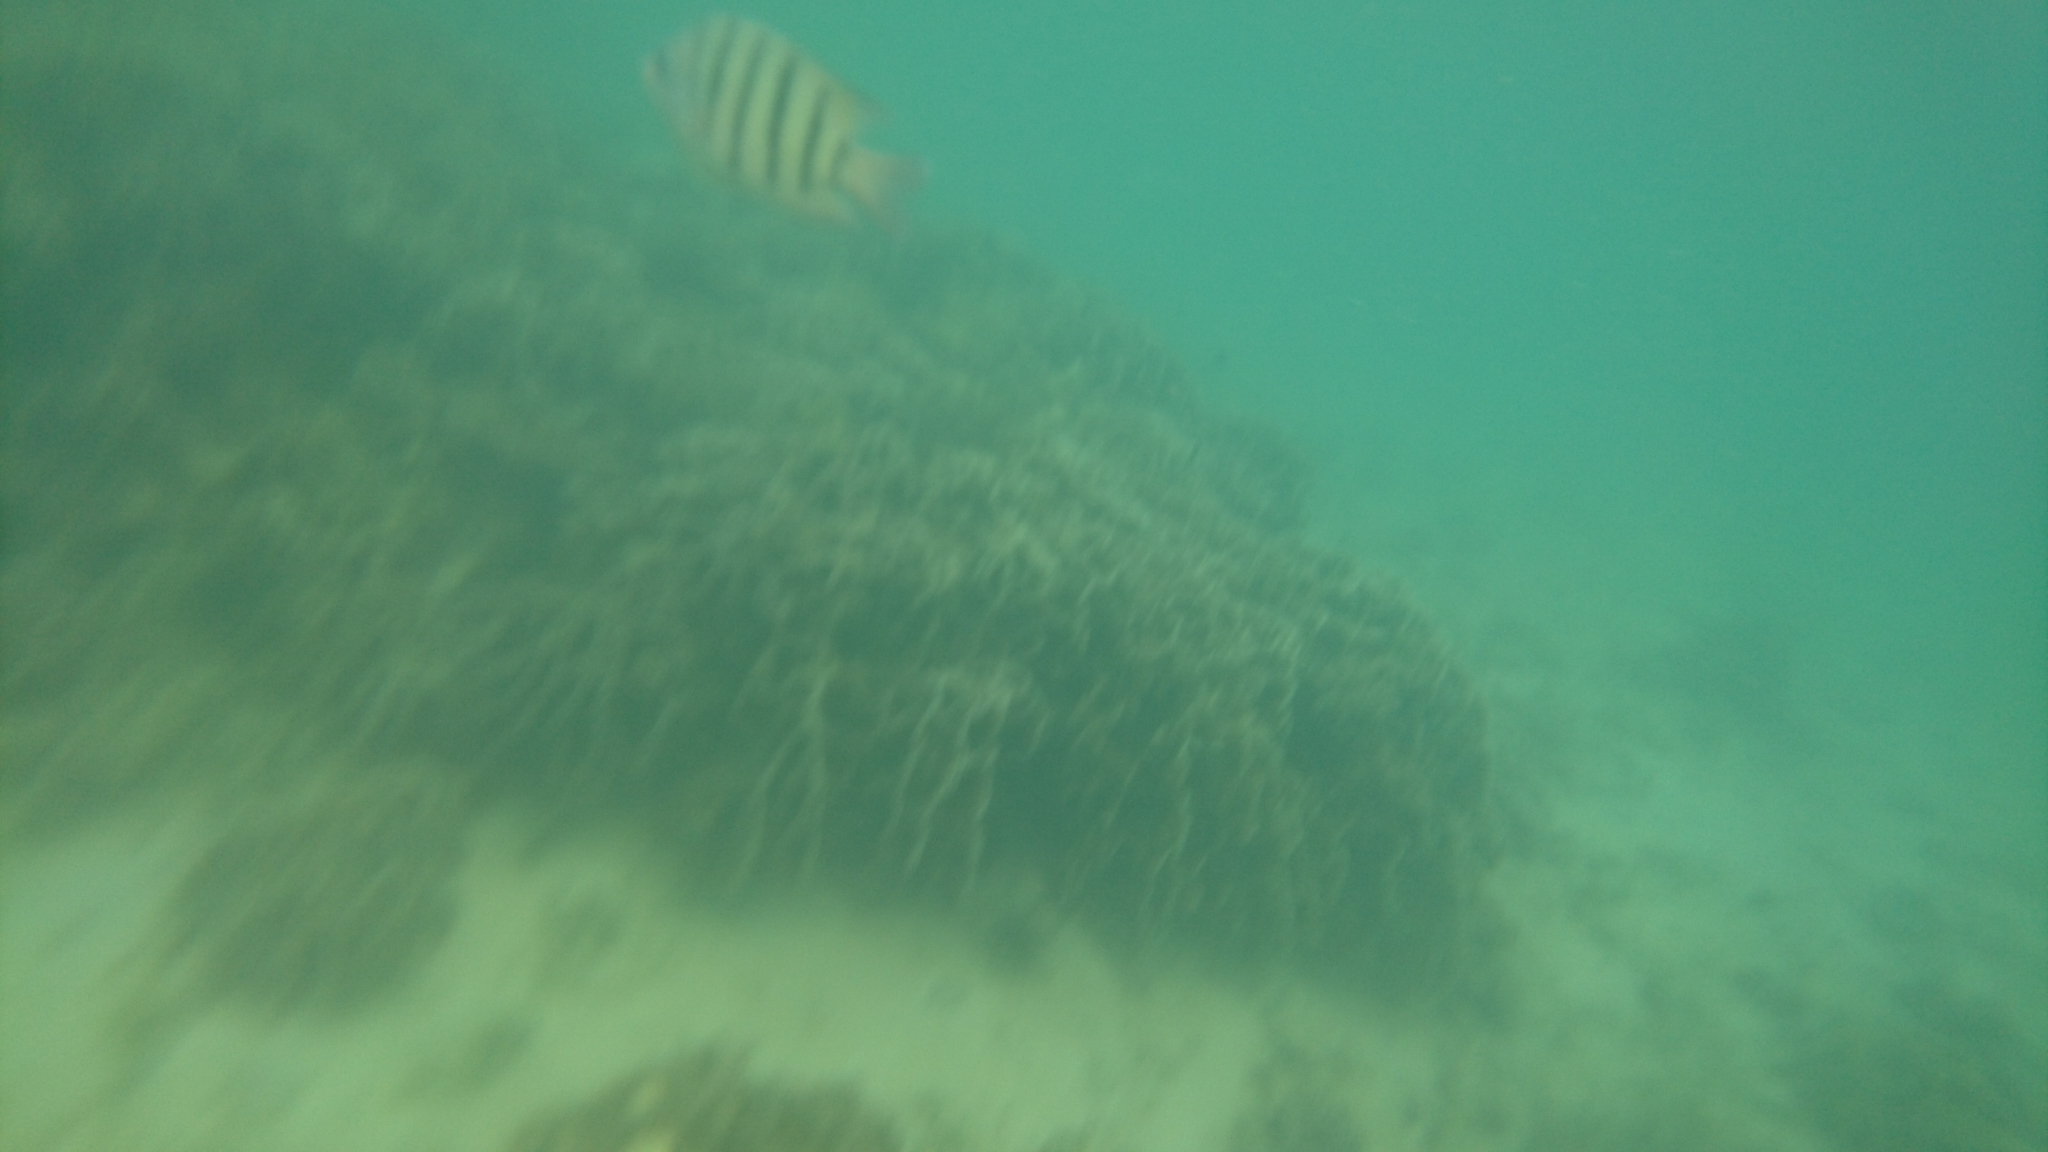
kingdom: Animalia
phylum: Chordata
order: Perciformes
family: Pomacentridae
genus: Abudefduf
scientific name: Abudefduf bengalensis
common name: Bengal sergeant
